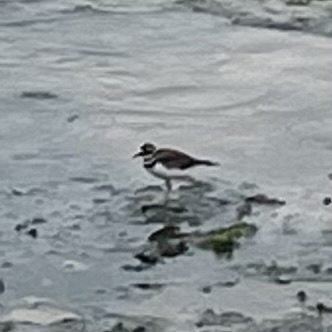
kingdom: Animalia
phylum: Chordata
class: Aves
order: Charadriiformes
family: Charadriidae
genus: Charadrius
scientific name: Charadrius vociferus
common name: Killdeer
